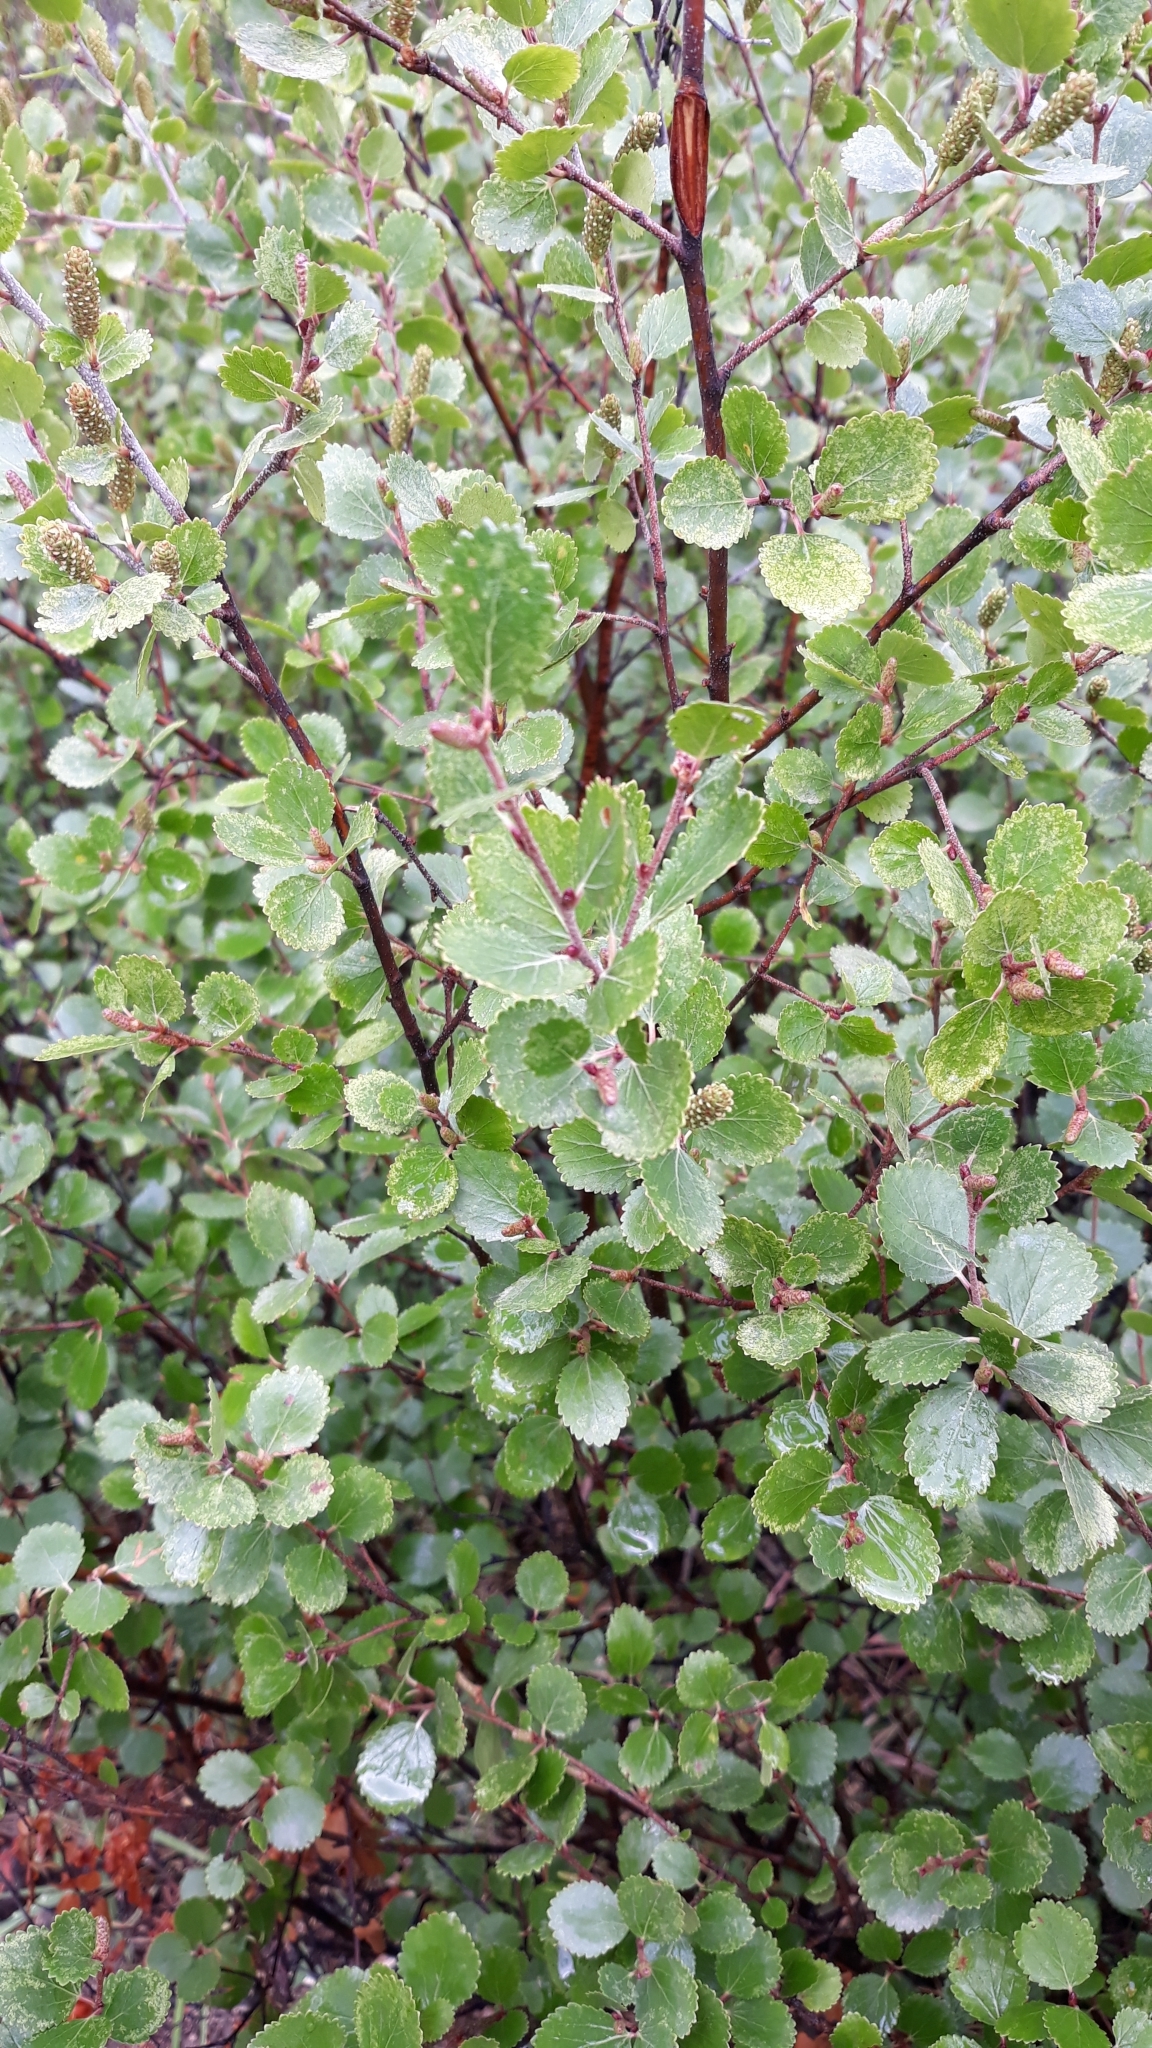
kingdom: Plantae
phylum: Tracheophyta
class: Magnoliopsida
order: Fagales
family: Betulaceae
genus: Betula
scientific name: Betula nana
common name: Arctic dwarf birch
